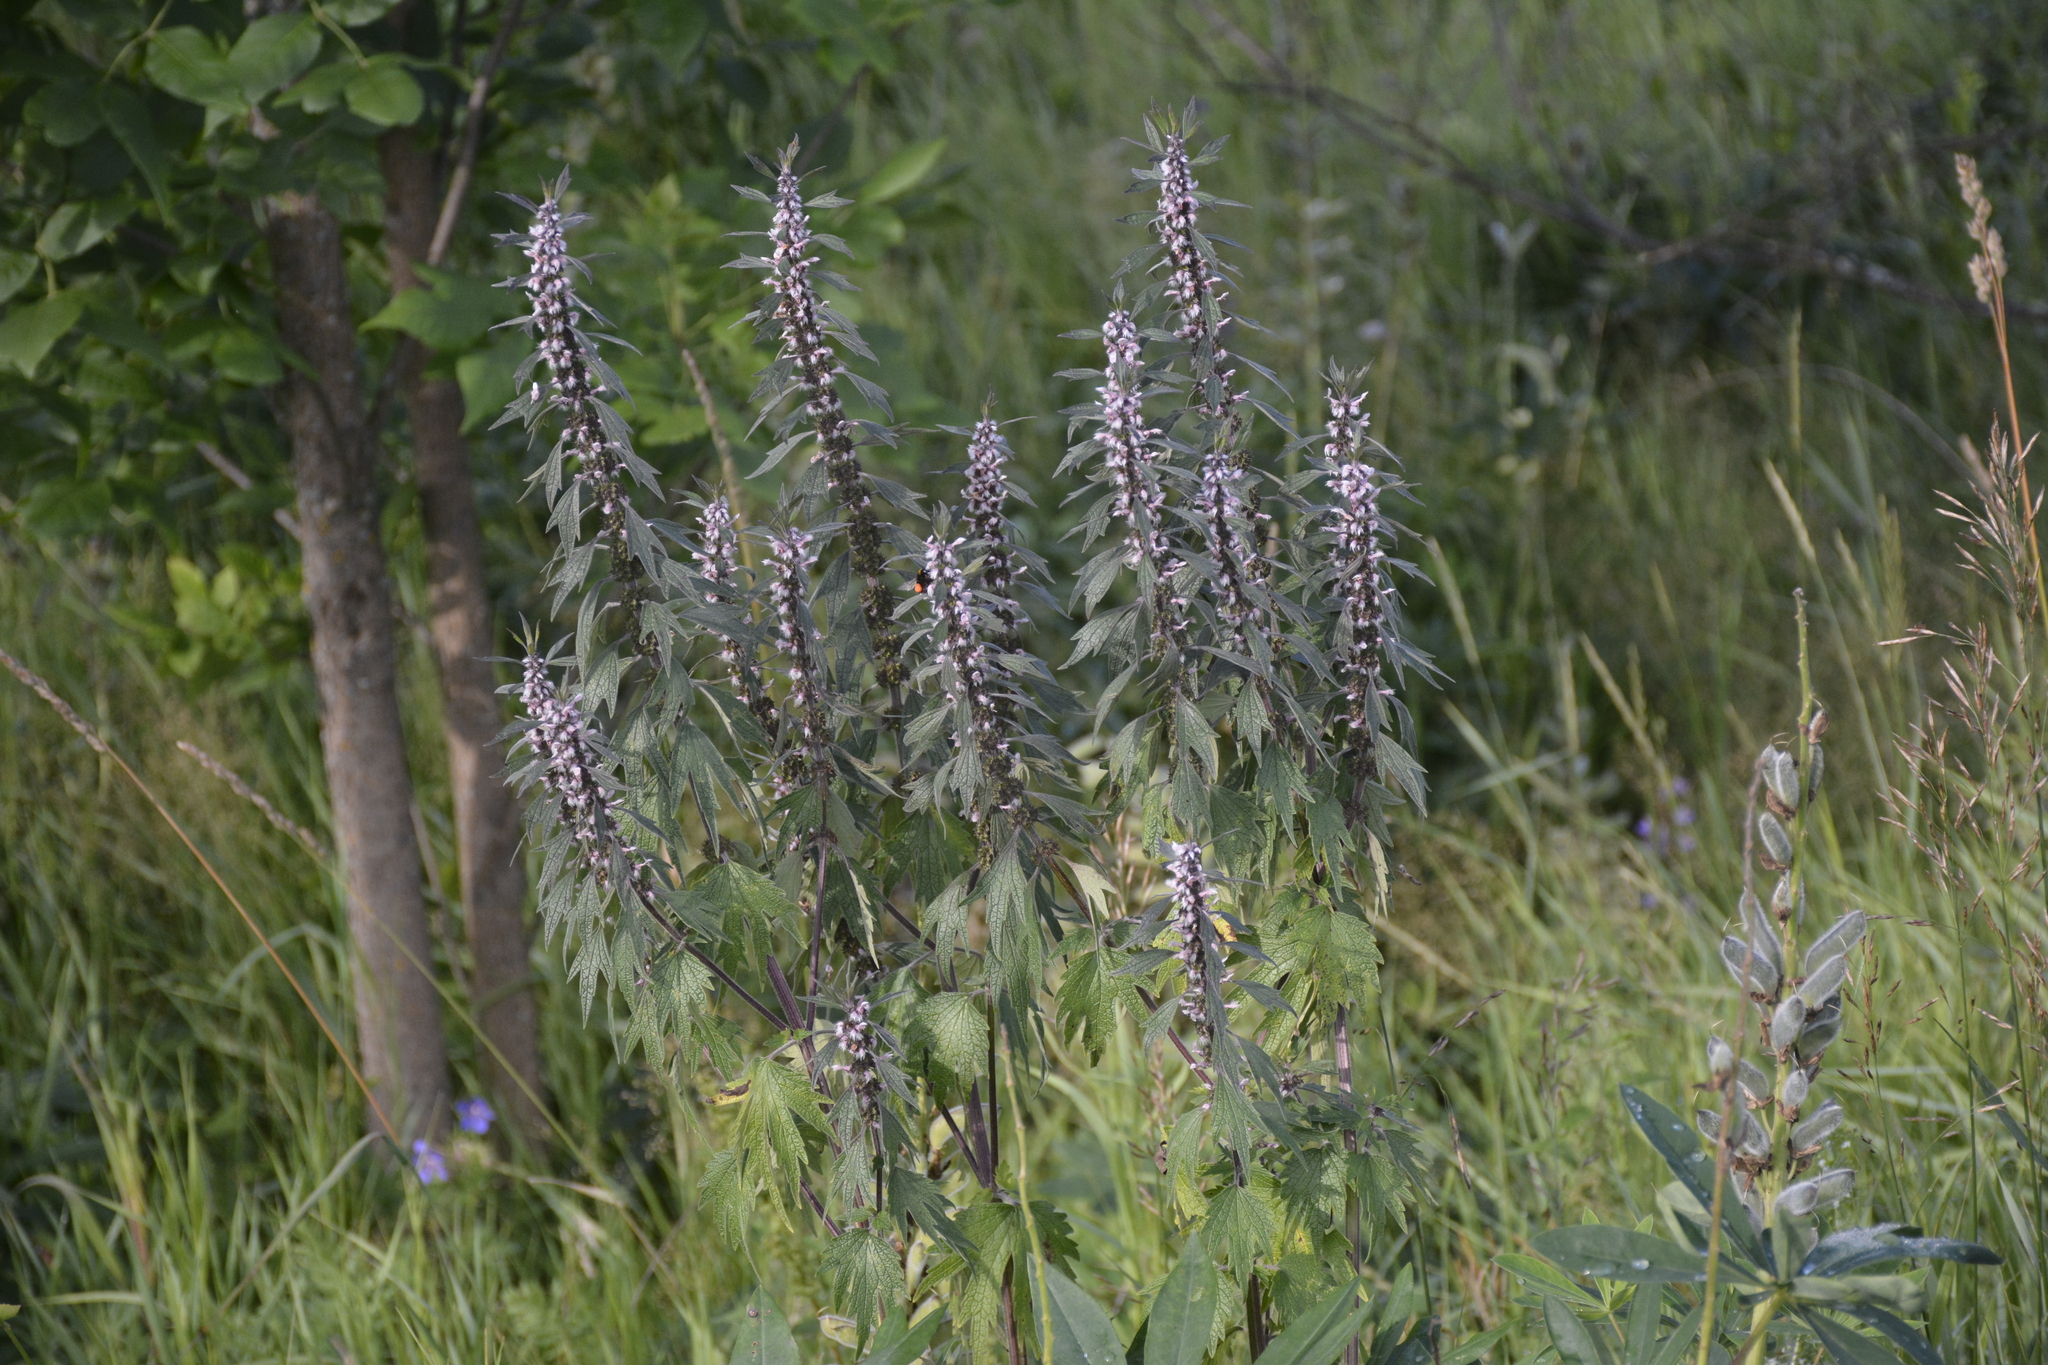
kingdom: Plantae
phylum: Tracheophyta
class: Magnoliopsida
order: Lamiales
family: Lamiaceae
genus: Leonurus
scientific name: Leonurus quinquelobatus
